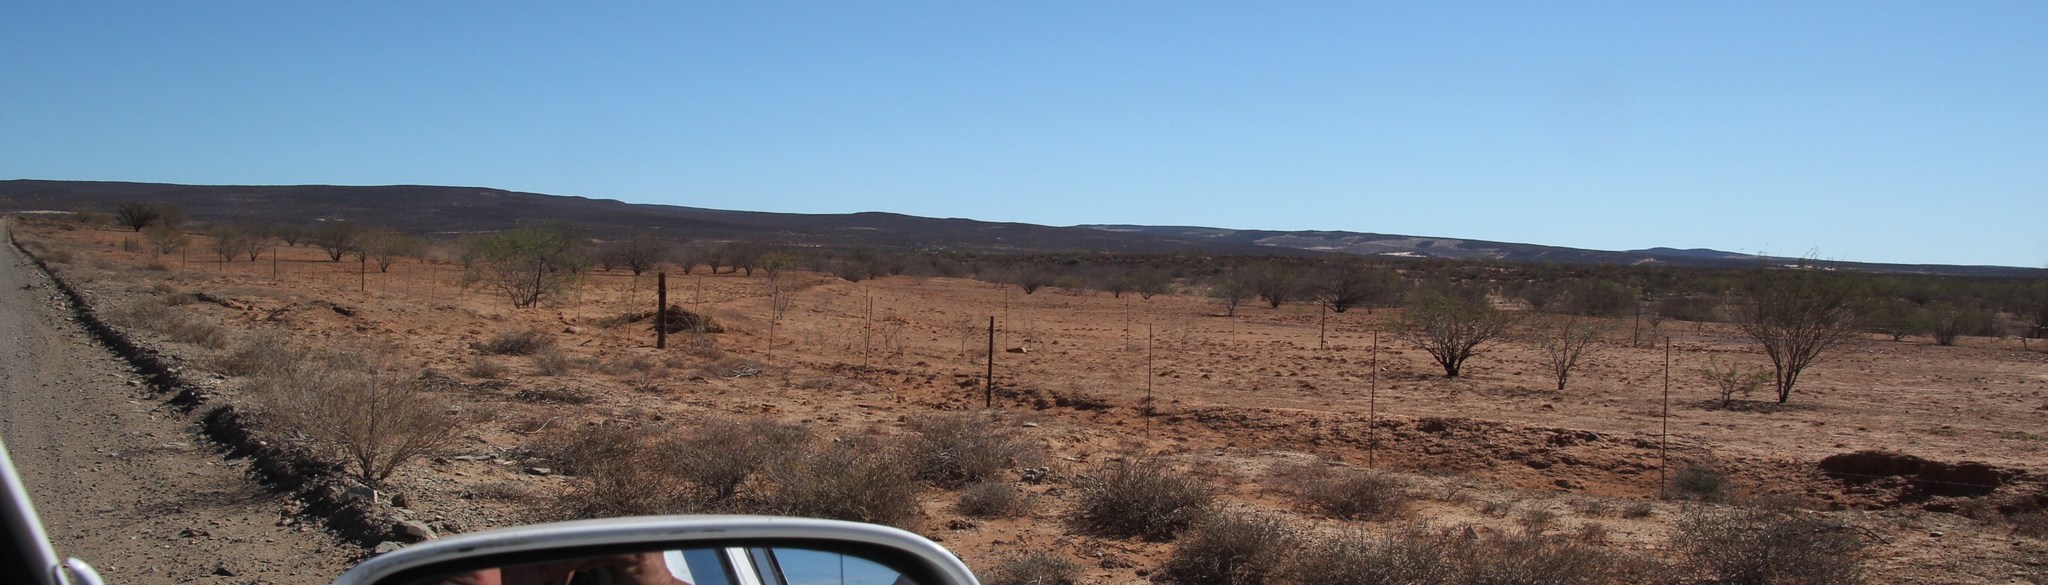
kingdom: Plantae
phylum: Tracheophyta
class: Magnoliopsida
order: Fabales
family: Fabaceae
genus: Prosopis
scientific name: Prosopis pubescens
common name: Screw-bean
